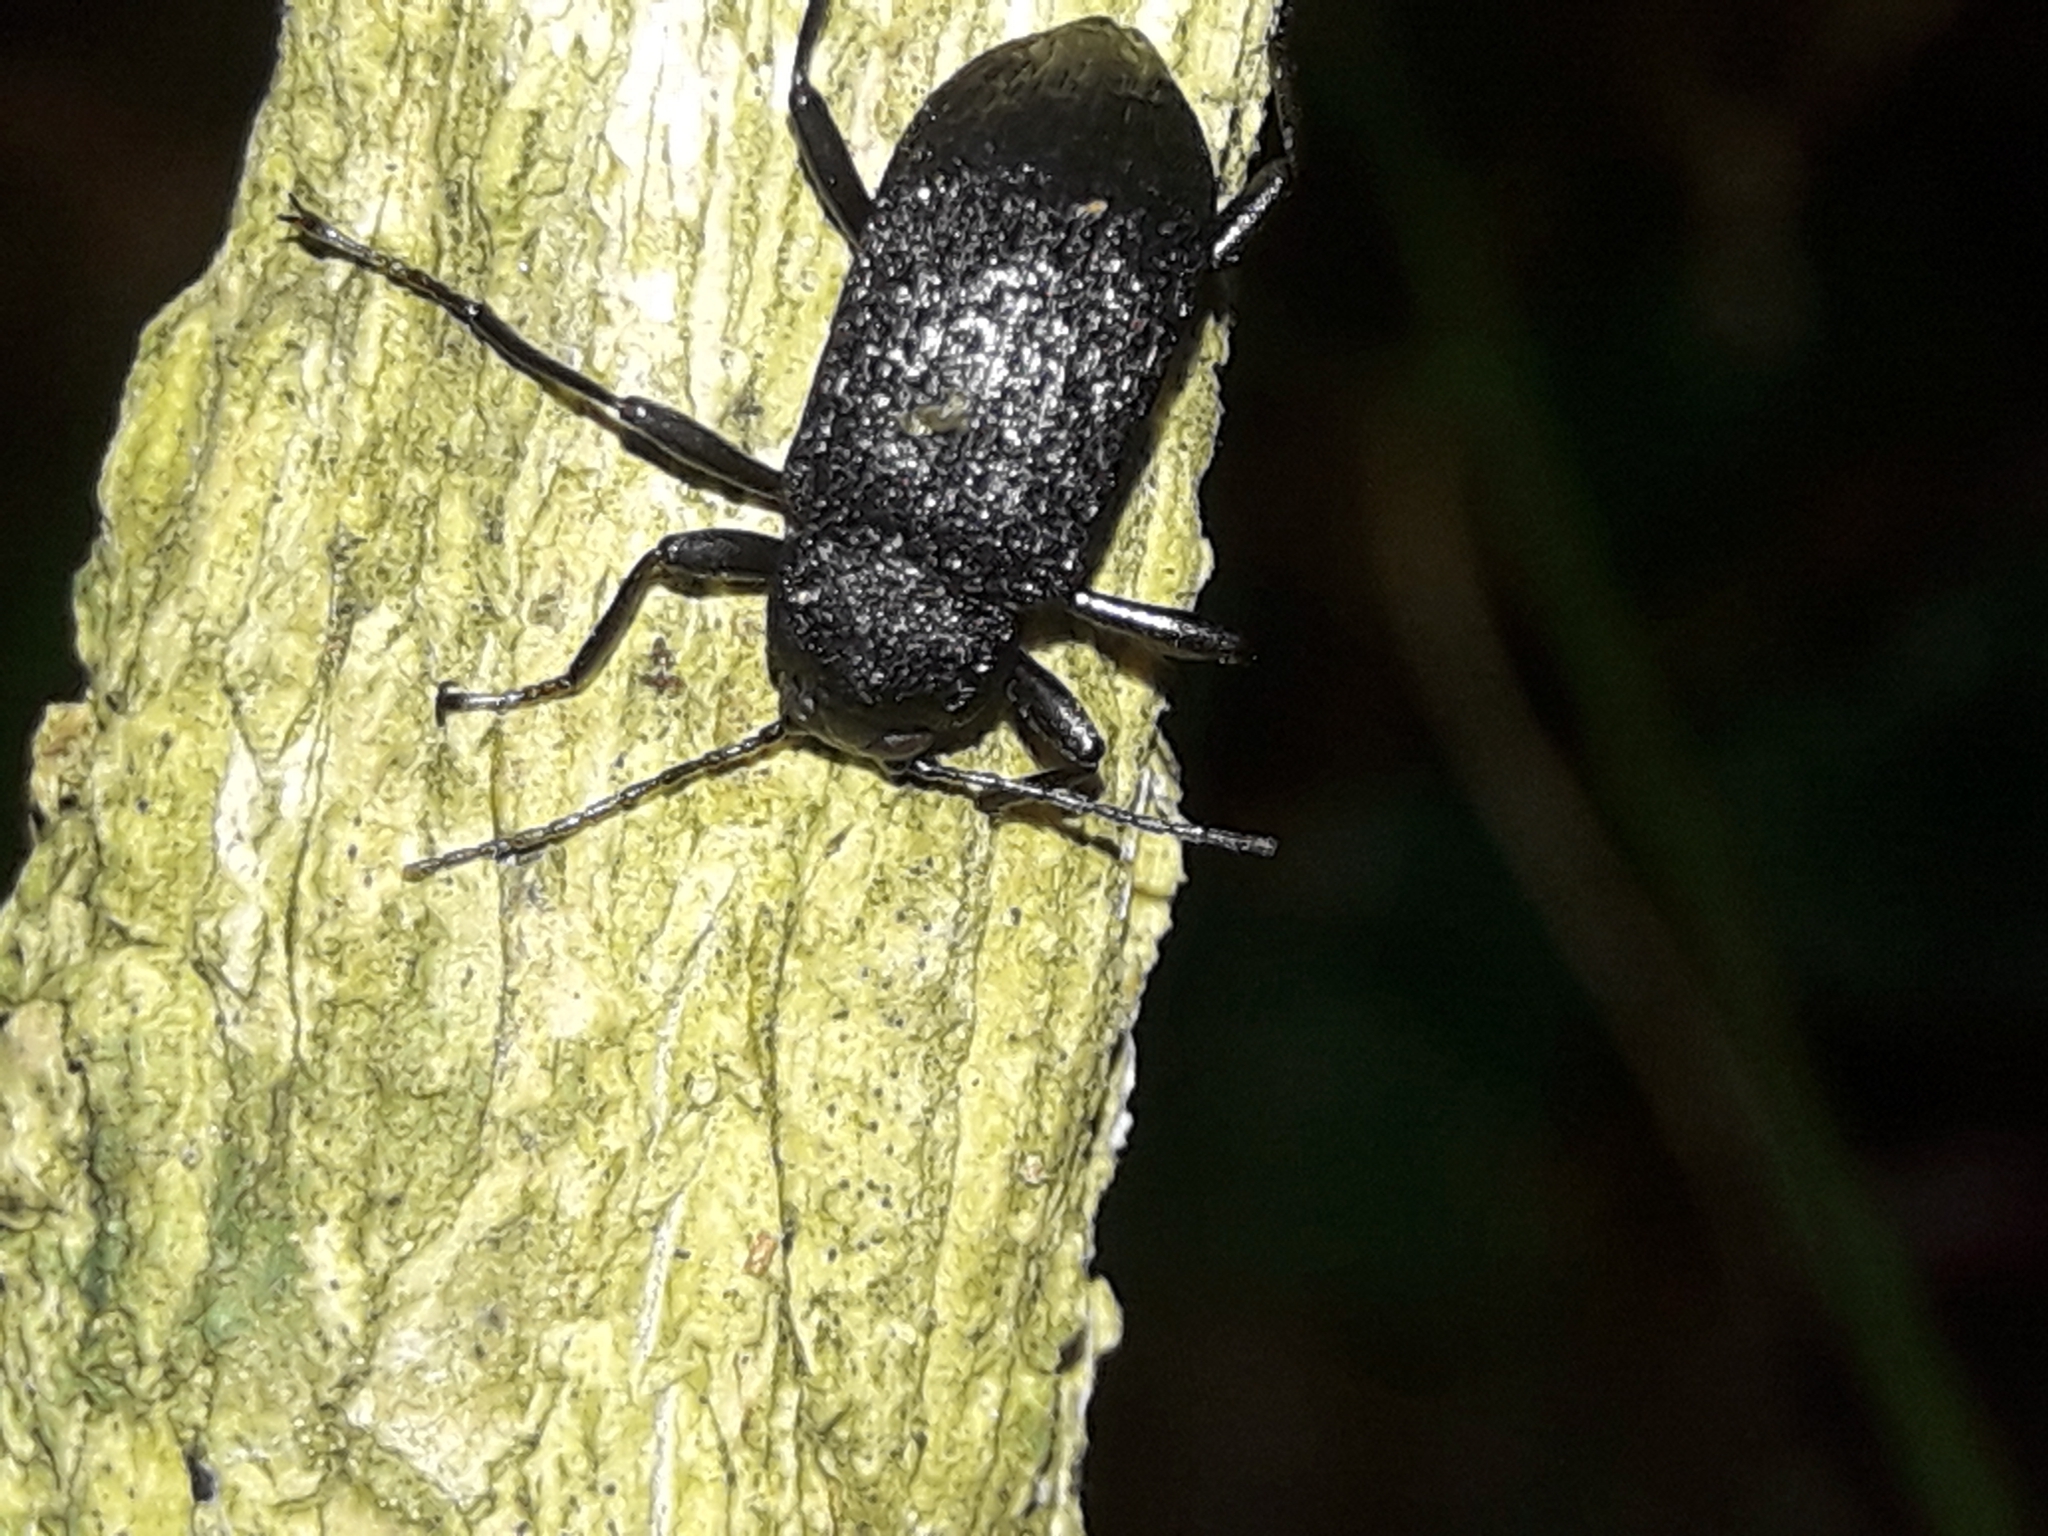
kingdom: Animalia
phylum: Arthropoda
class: Insecta
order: Coleoptera
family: Tenebrionidae
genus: Bionesus
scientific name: Bionesus
